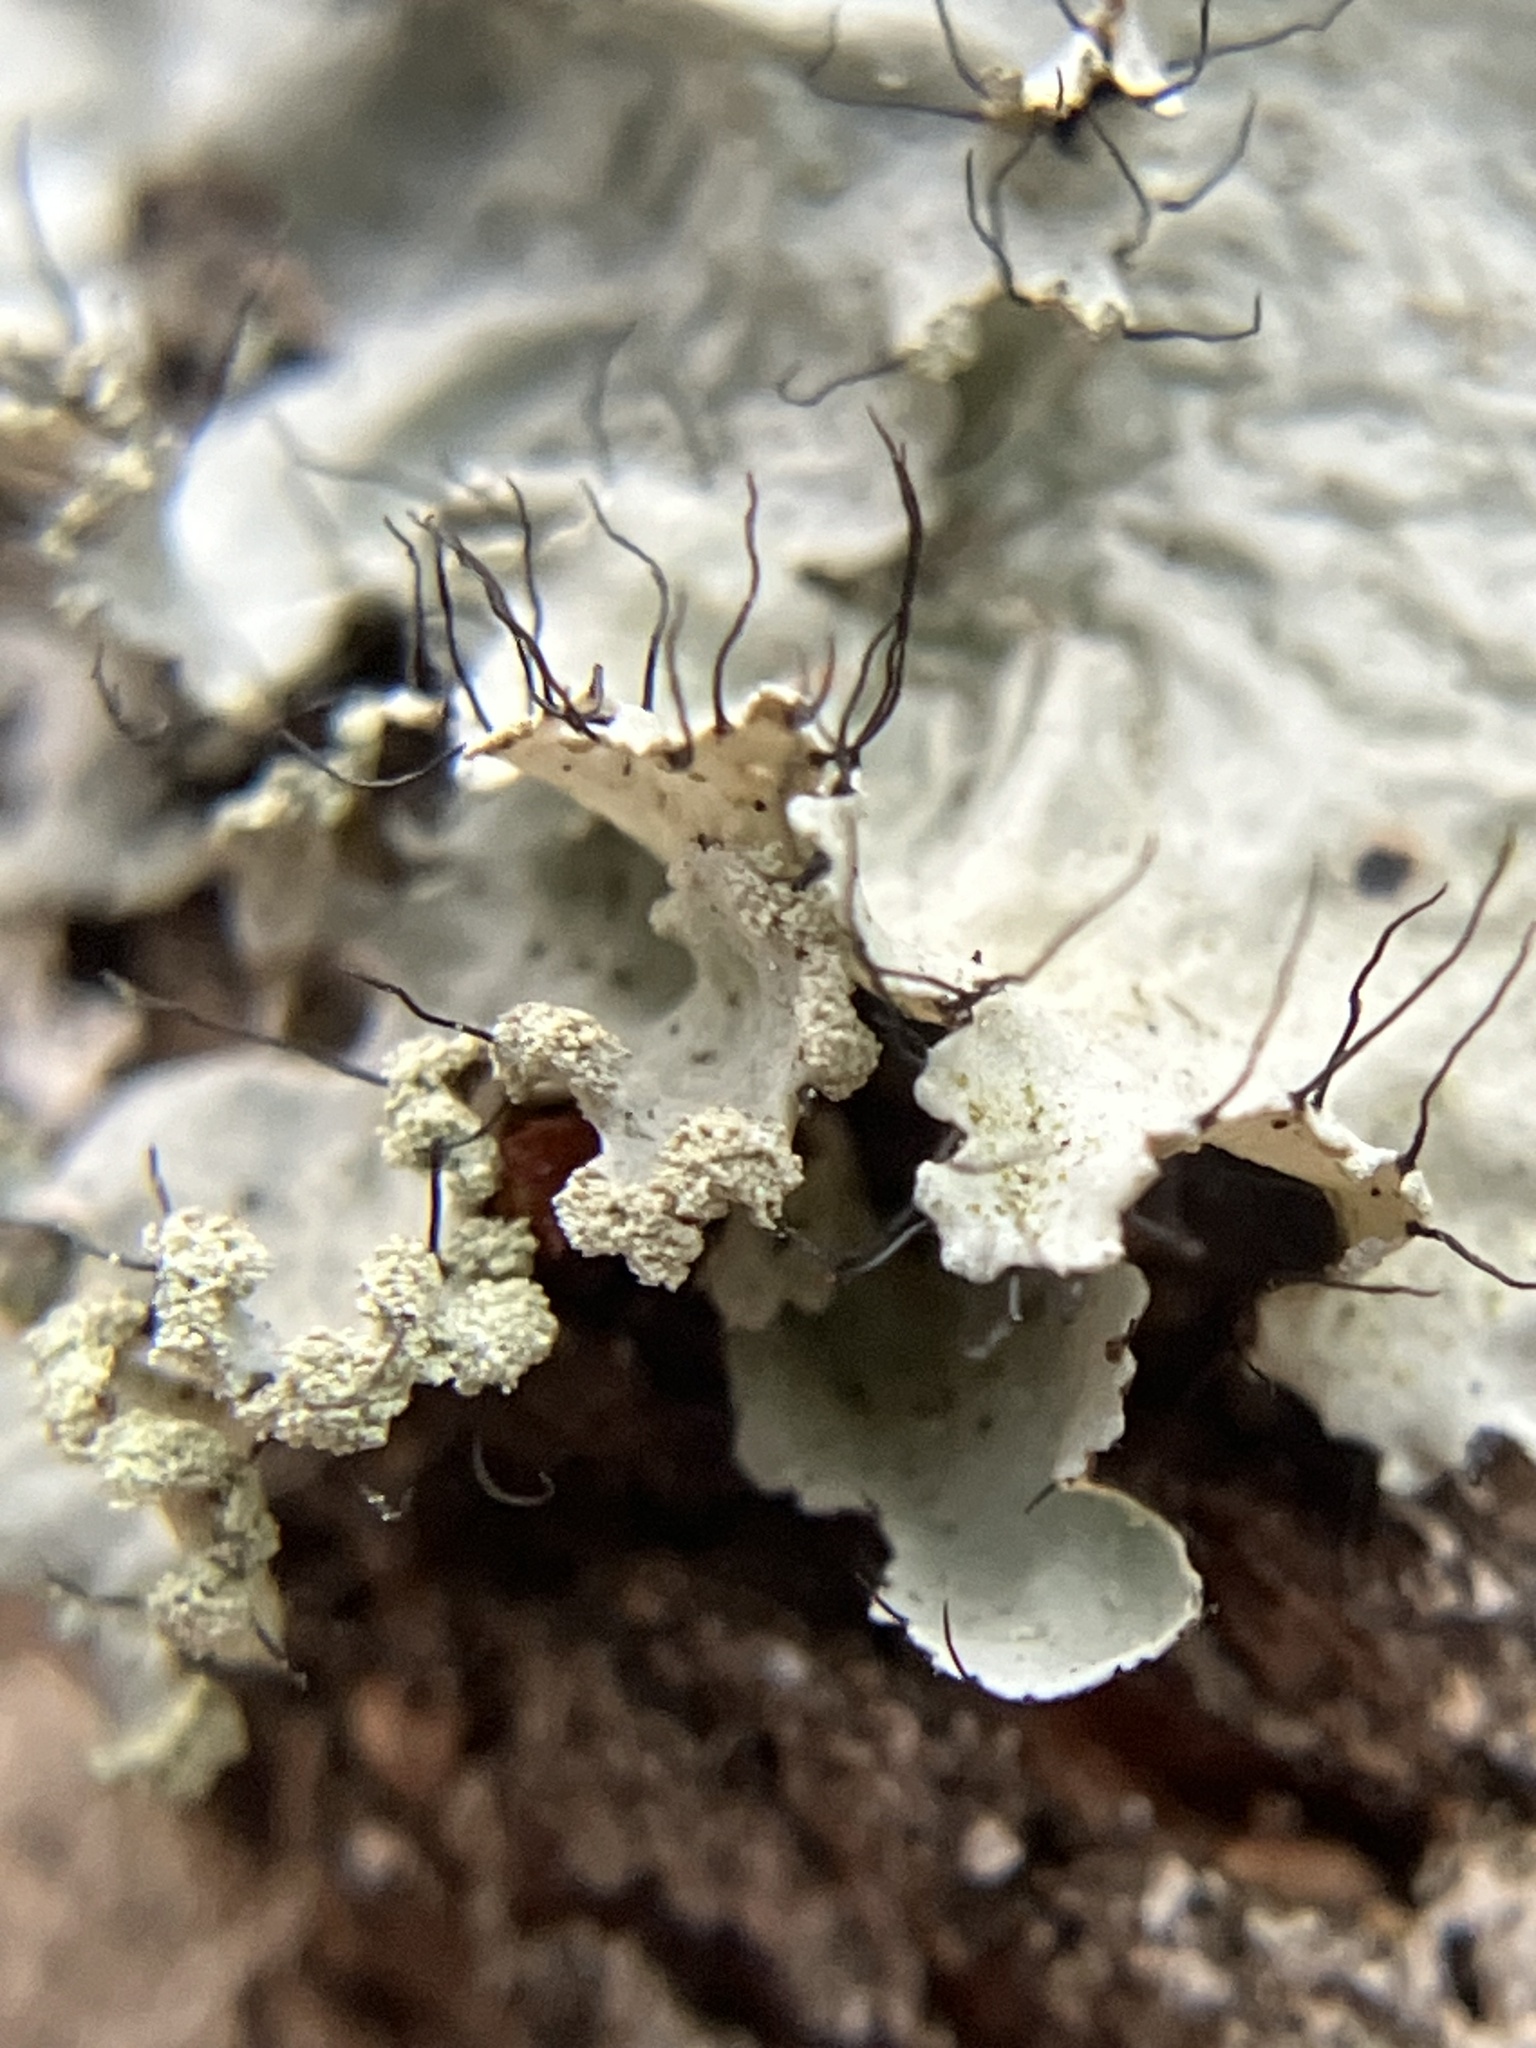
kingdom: Fungi
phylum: Ascomycota
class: Lecanoromycetes
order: Lecanorales
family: Parmeliaceae
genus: Parmotrema
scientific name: Parmotrema hypotropum
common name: Powdered ruffle lichen
